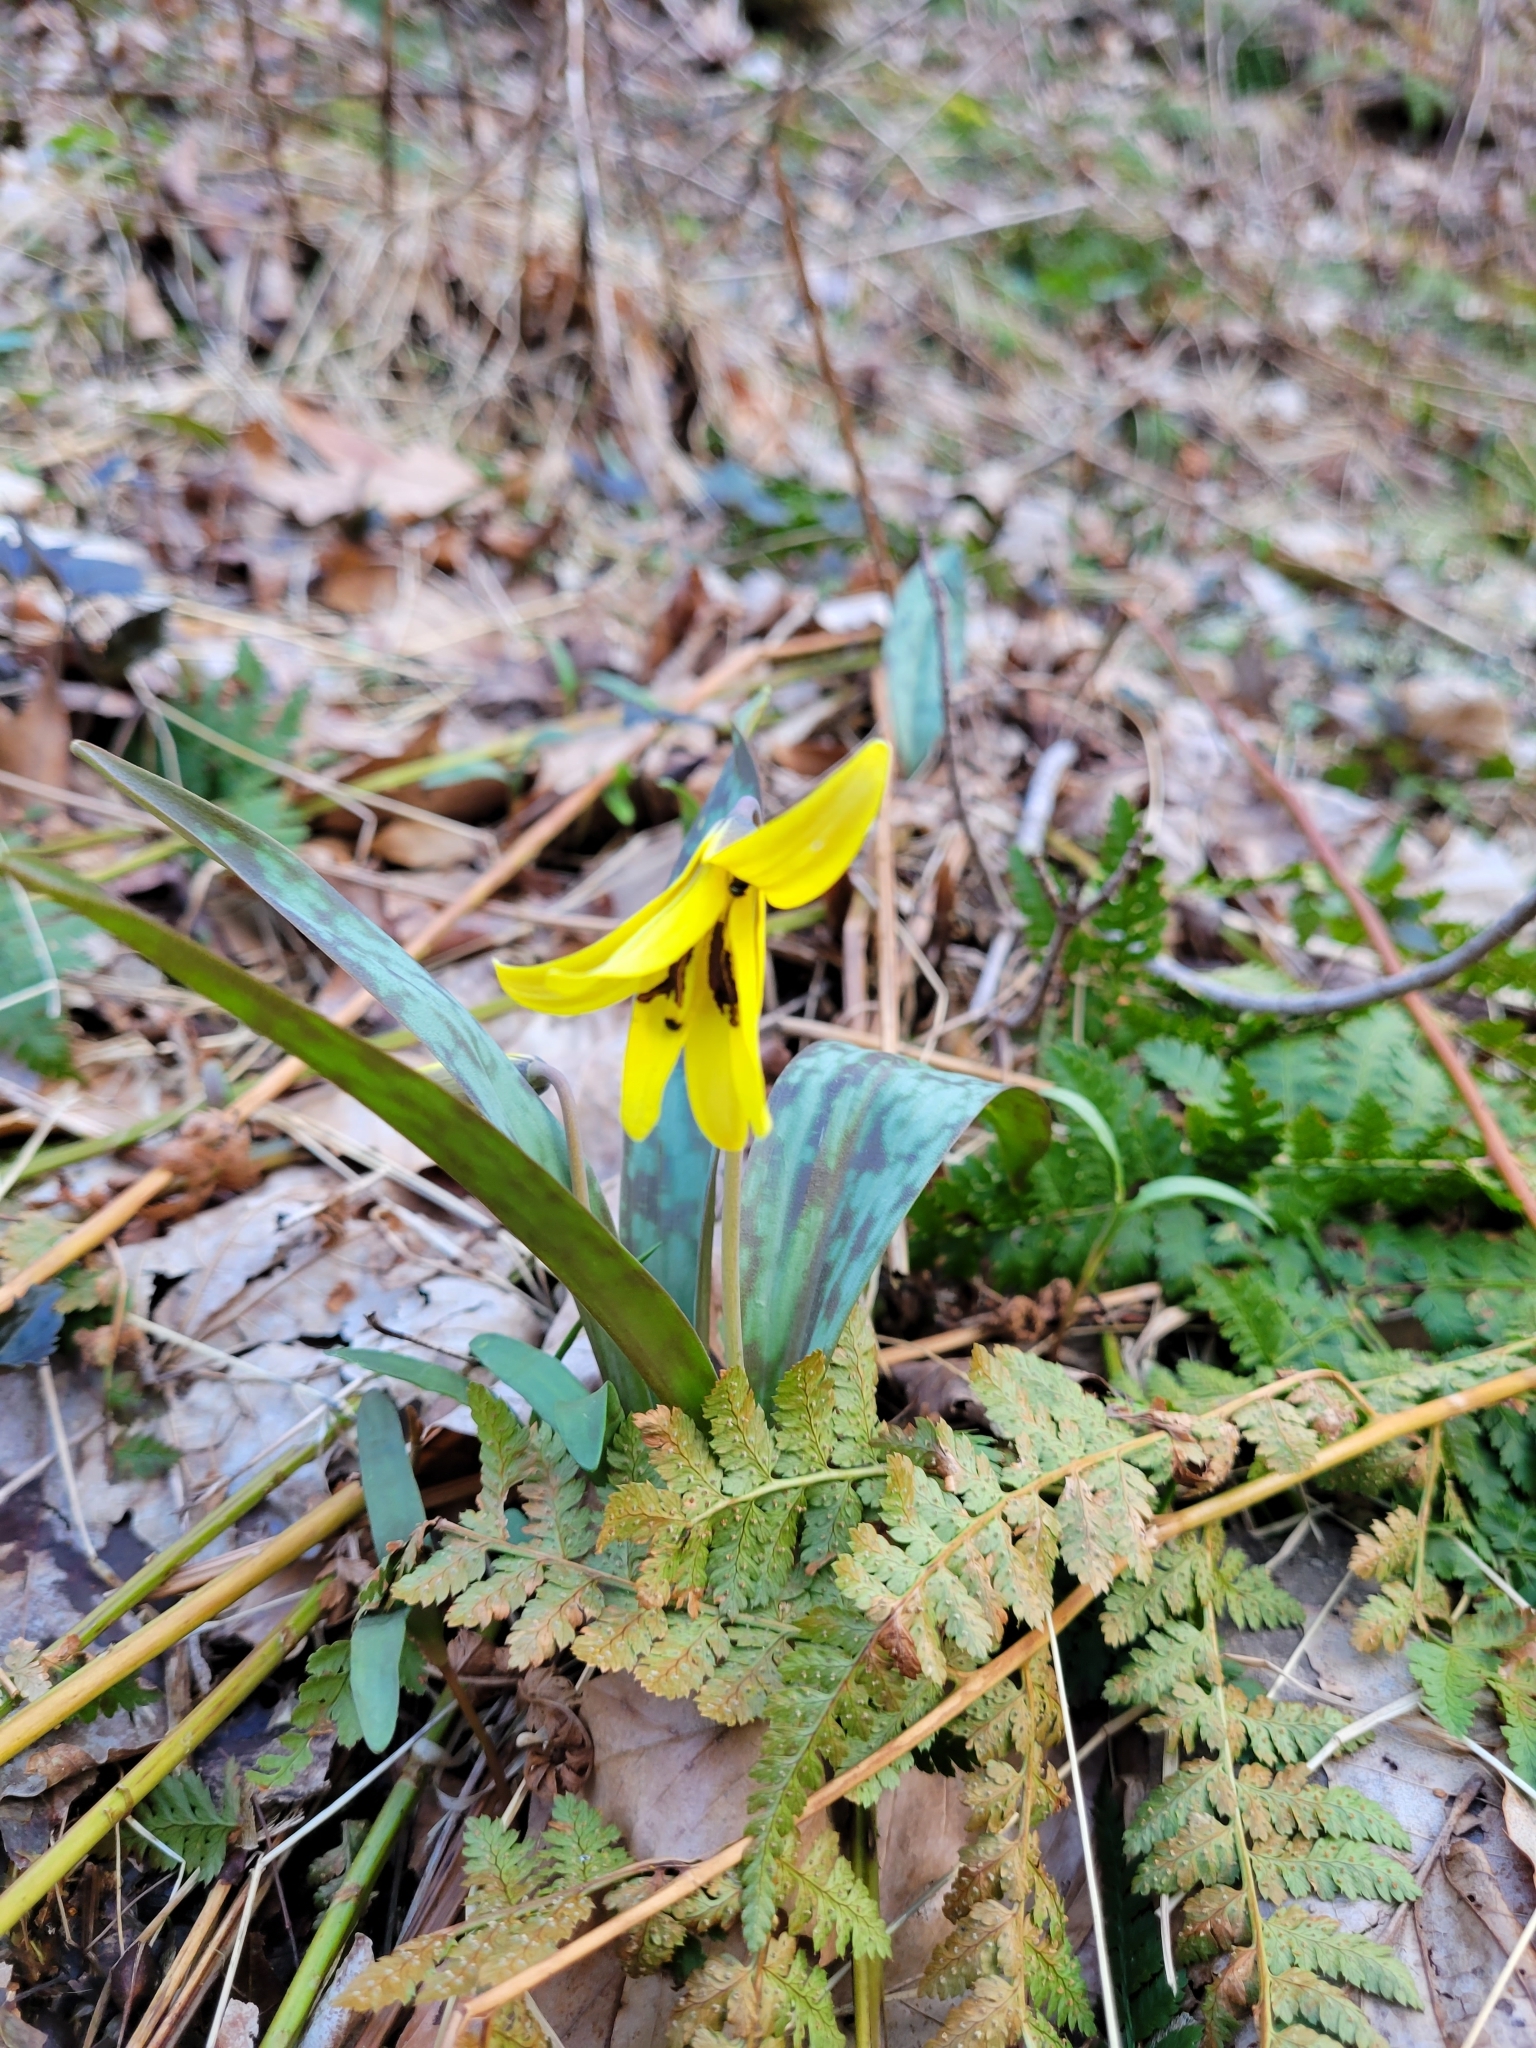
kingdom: Plantae
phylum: Tracheophyta
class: Liliopsida
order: Liliales
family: Liliaceae
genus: Erythronium
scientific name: Erythronium americanum
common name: Yellow adder's-tongue
